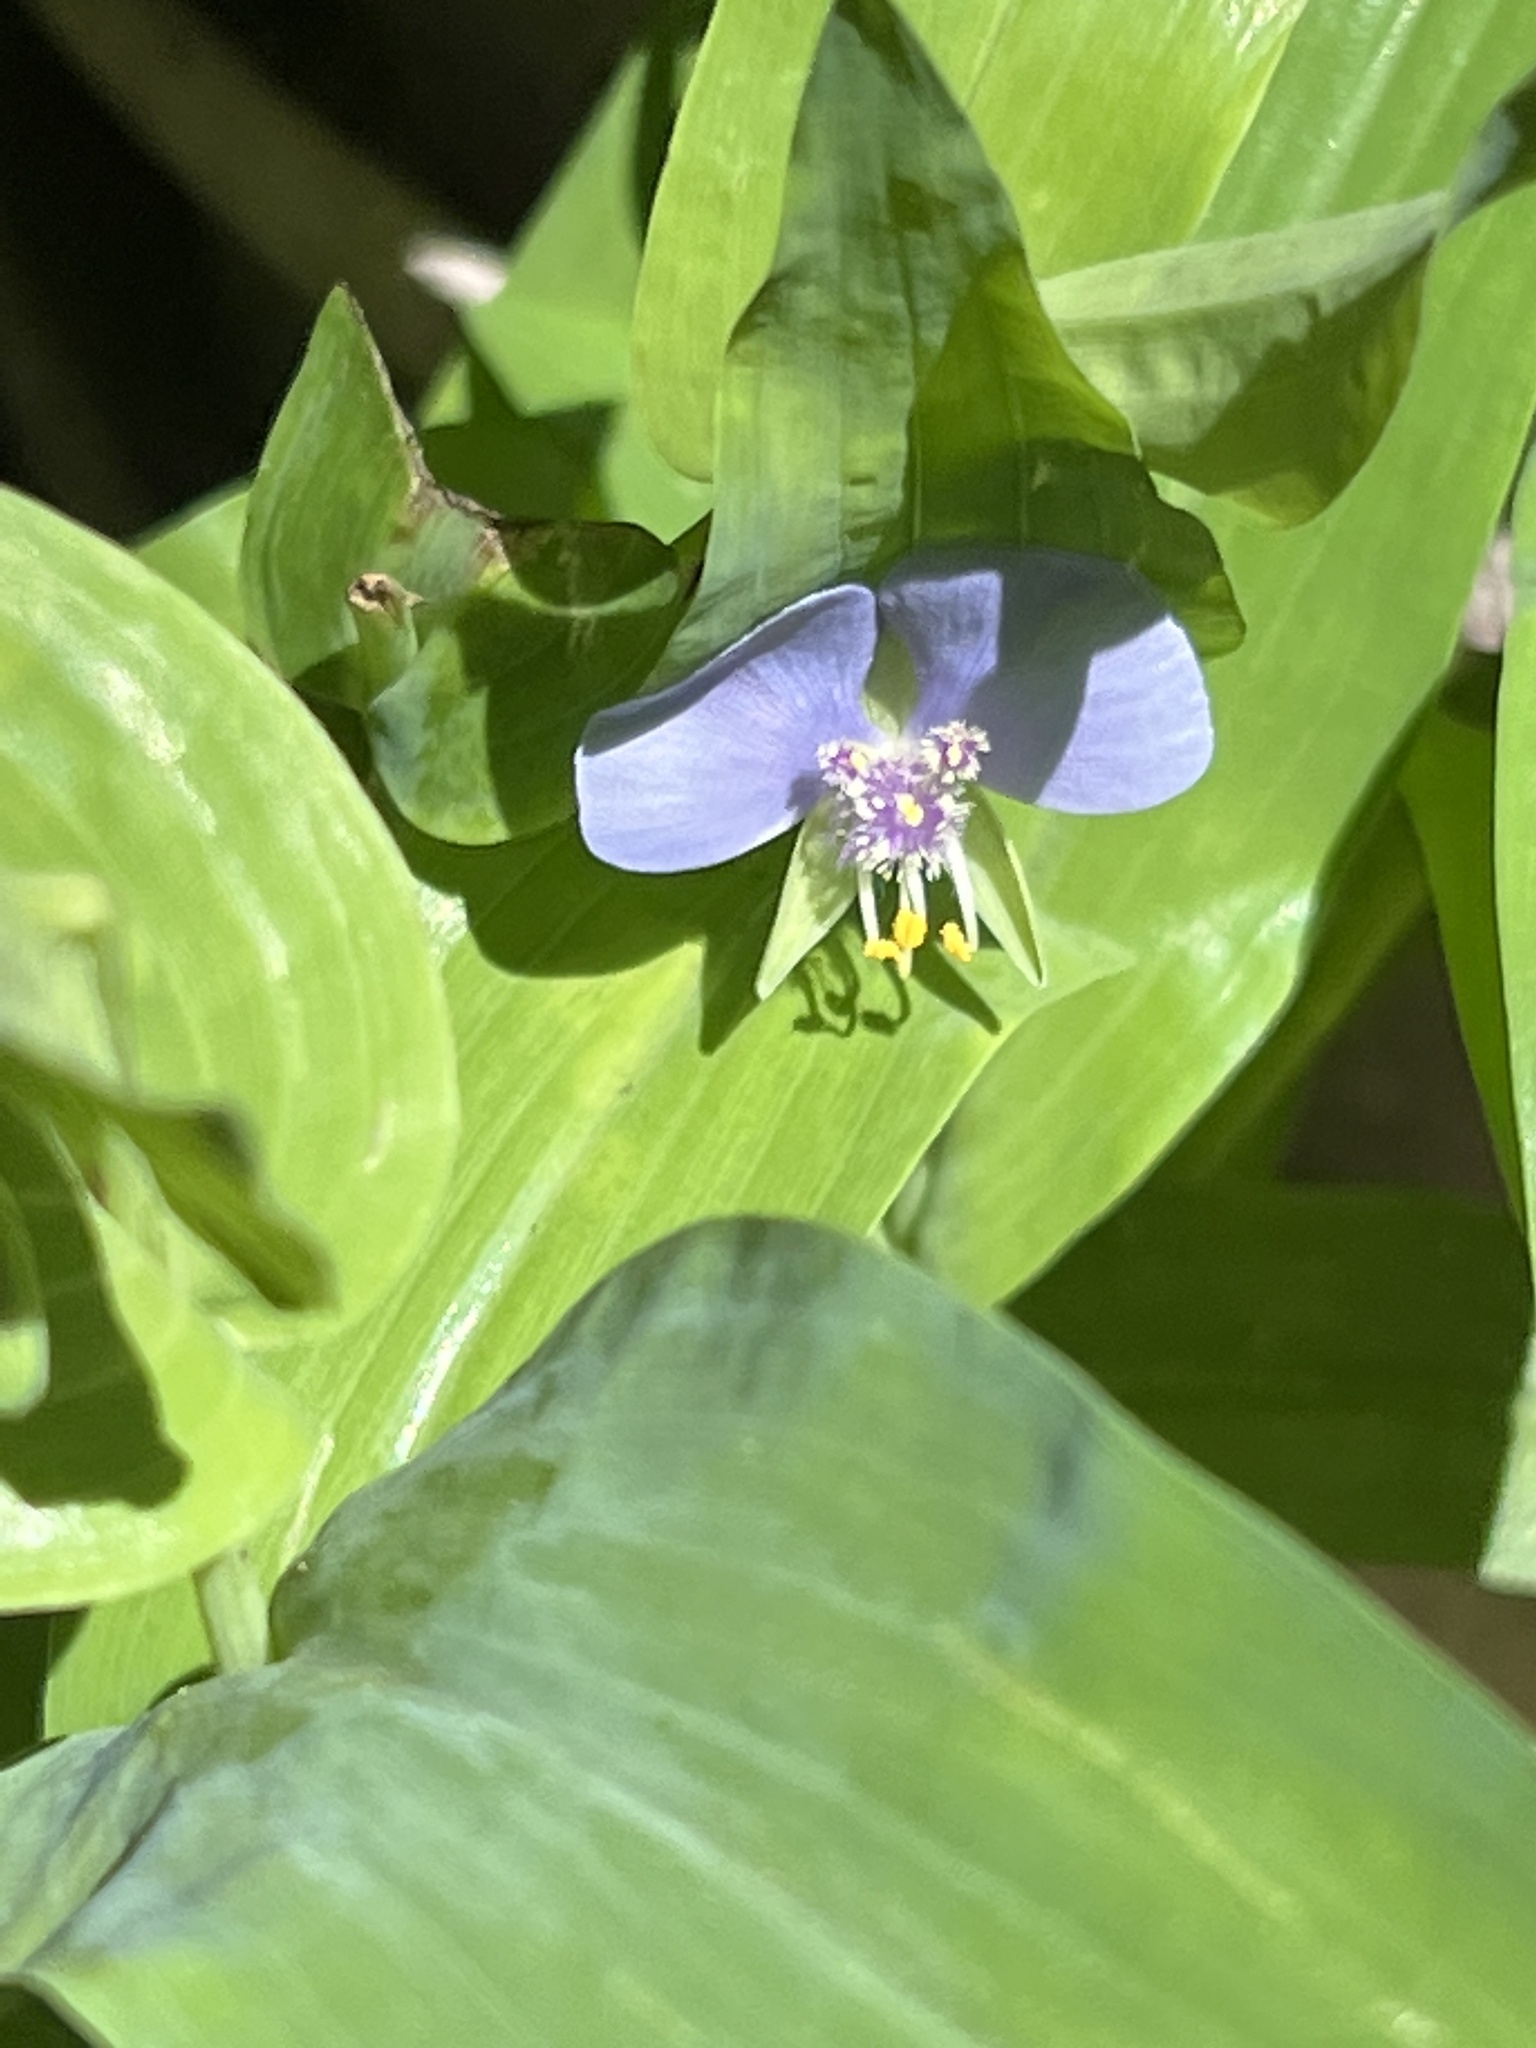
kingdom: Plantae
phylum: Tracheophyta
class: Liliopsida
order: Commelinales
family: Commelinaceae
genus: Tinantia
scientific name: Tinantia anomala
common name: False dayflower
